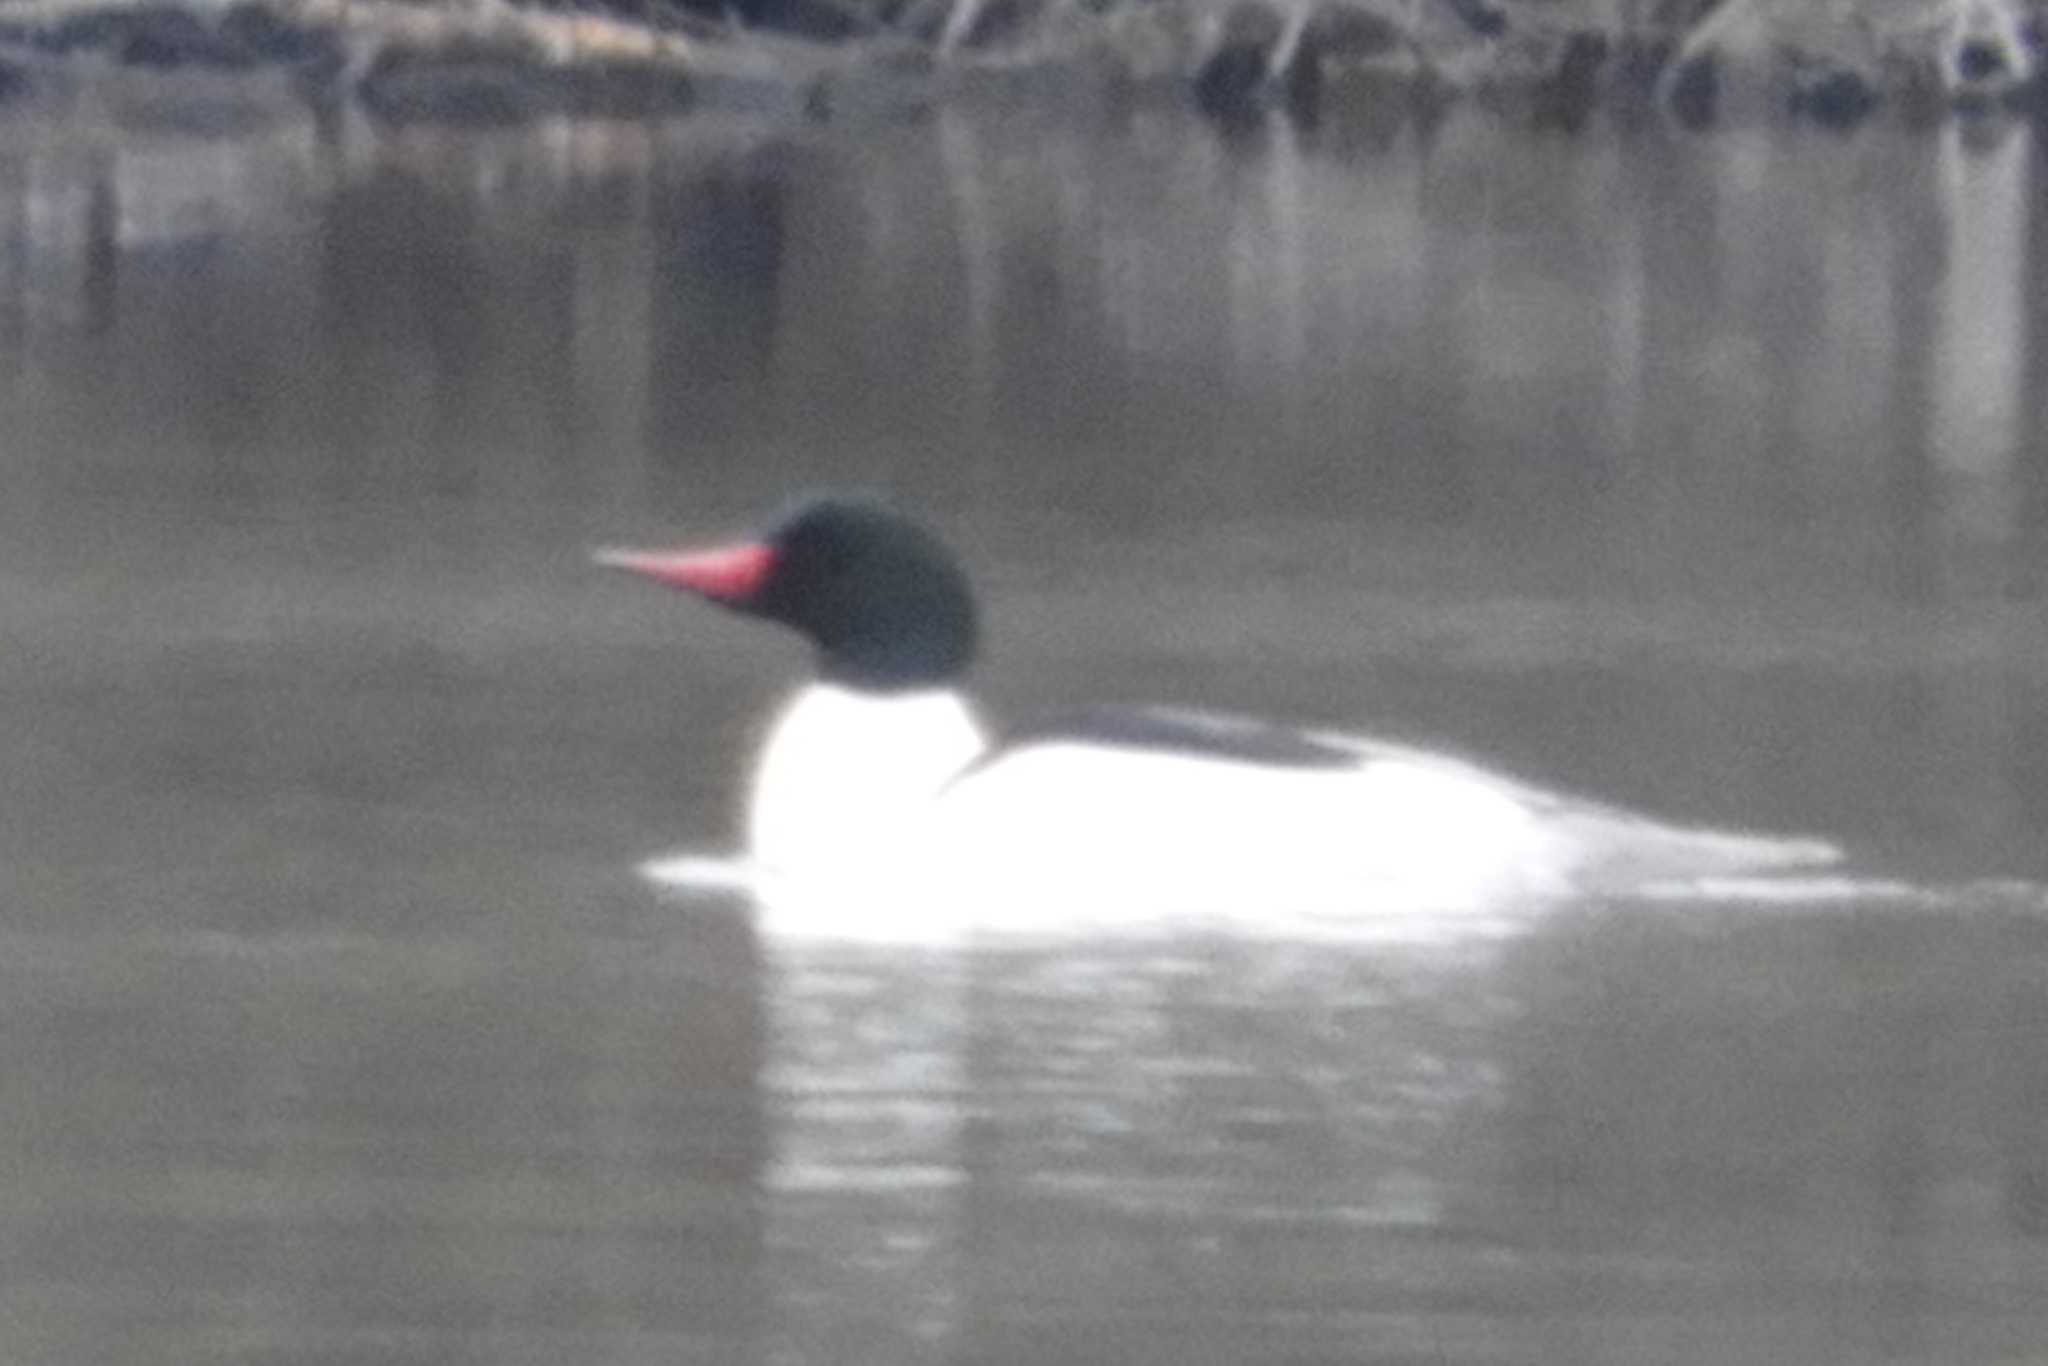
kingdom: Animalia
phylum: Chordata
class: Aves
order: Anseriformes
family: Anatidae
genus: Mergus
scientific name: Mergus merganser
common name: Common merganser
